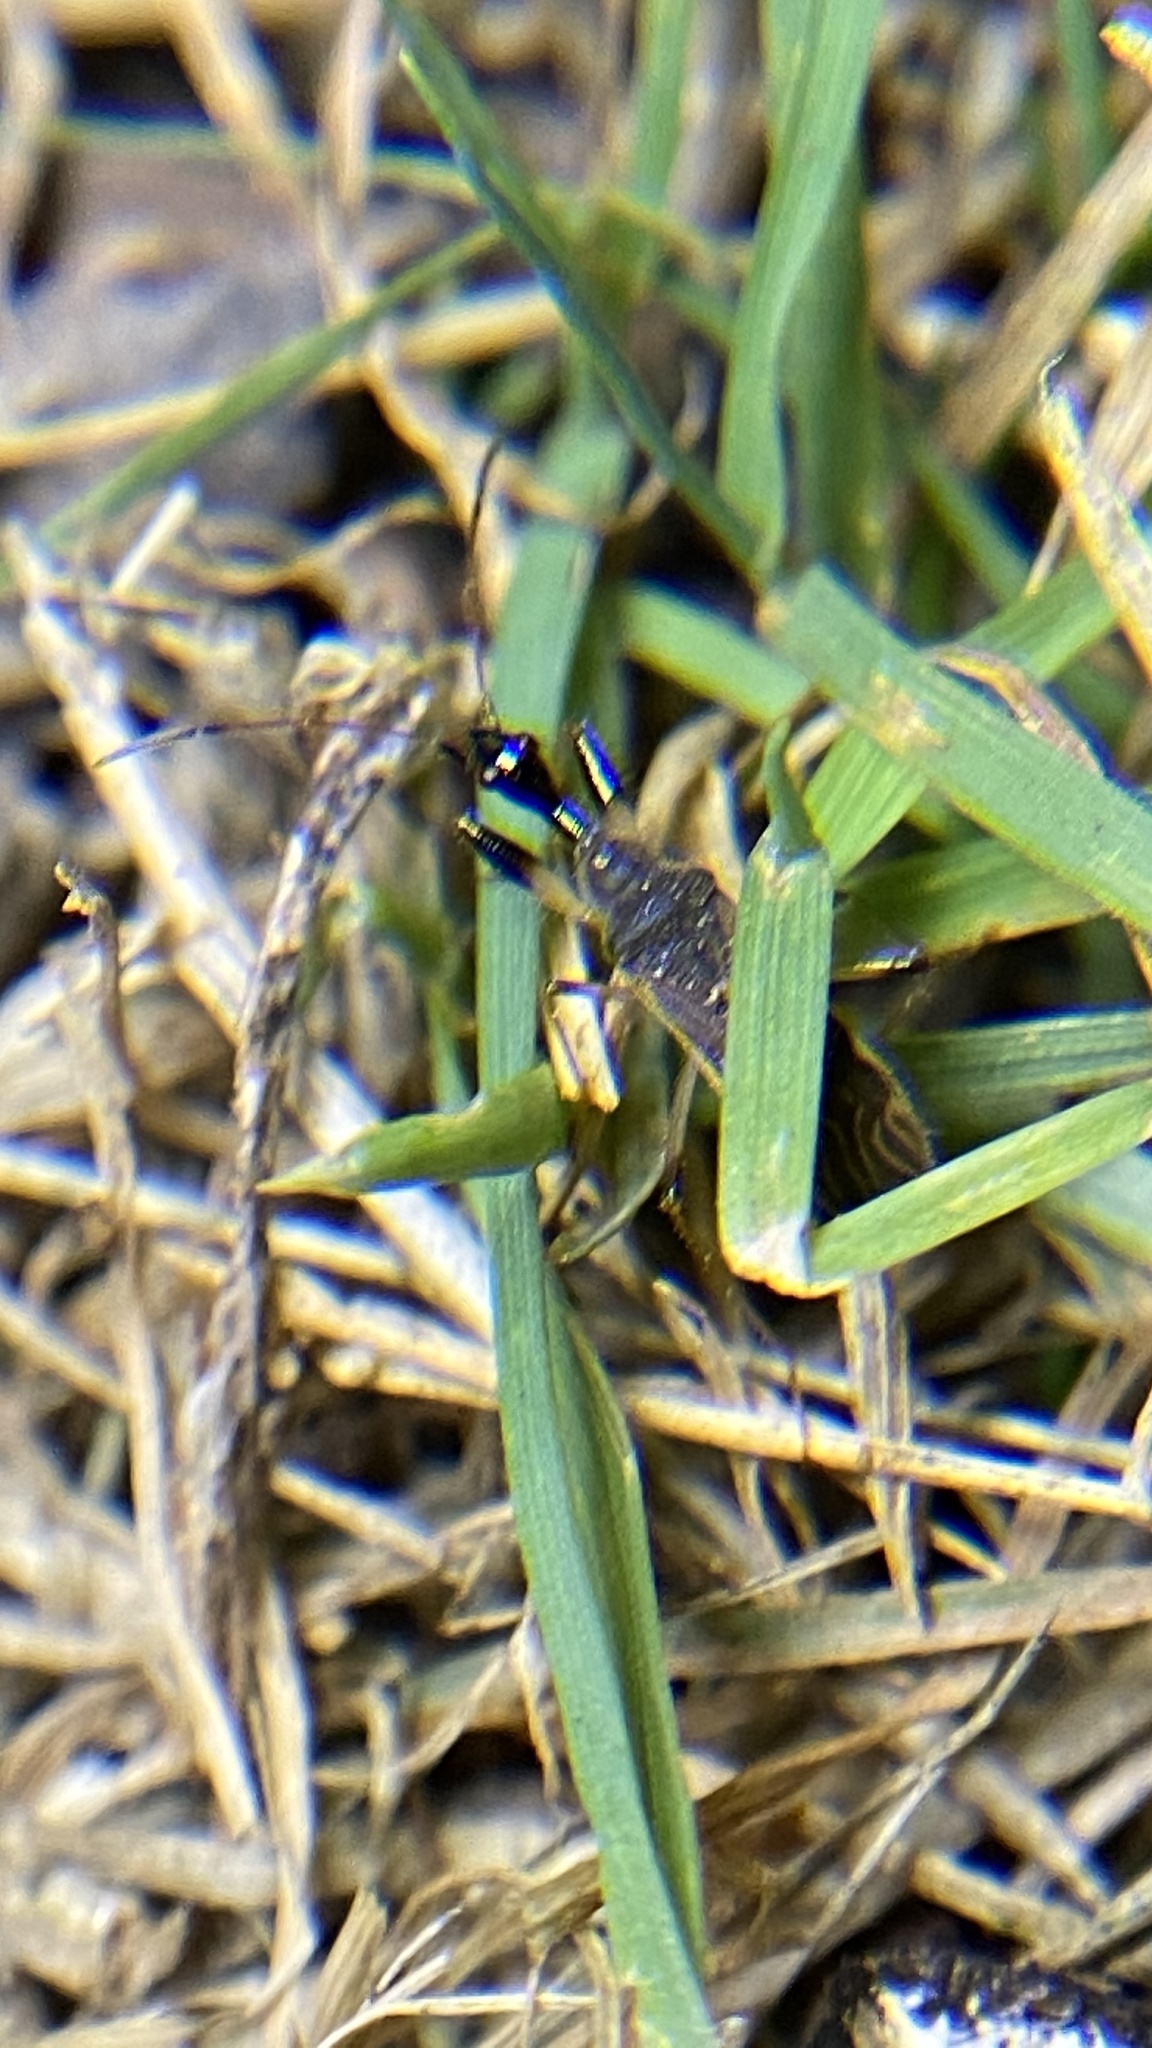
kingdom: Animalia
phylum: Arthropoda
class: Insecta
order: Hemiptera
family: Rhyparochromidae
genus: Myodocha
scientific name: Myodocha serripes
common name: Long-necked seed bug
